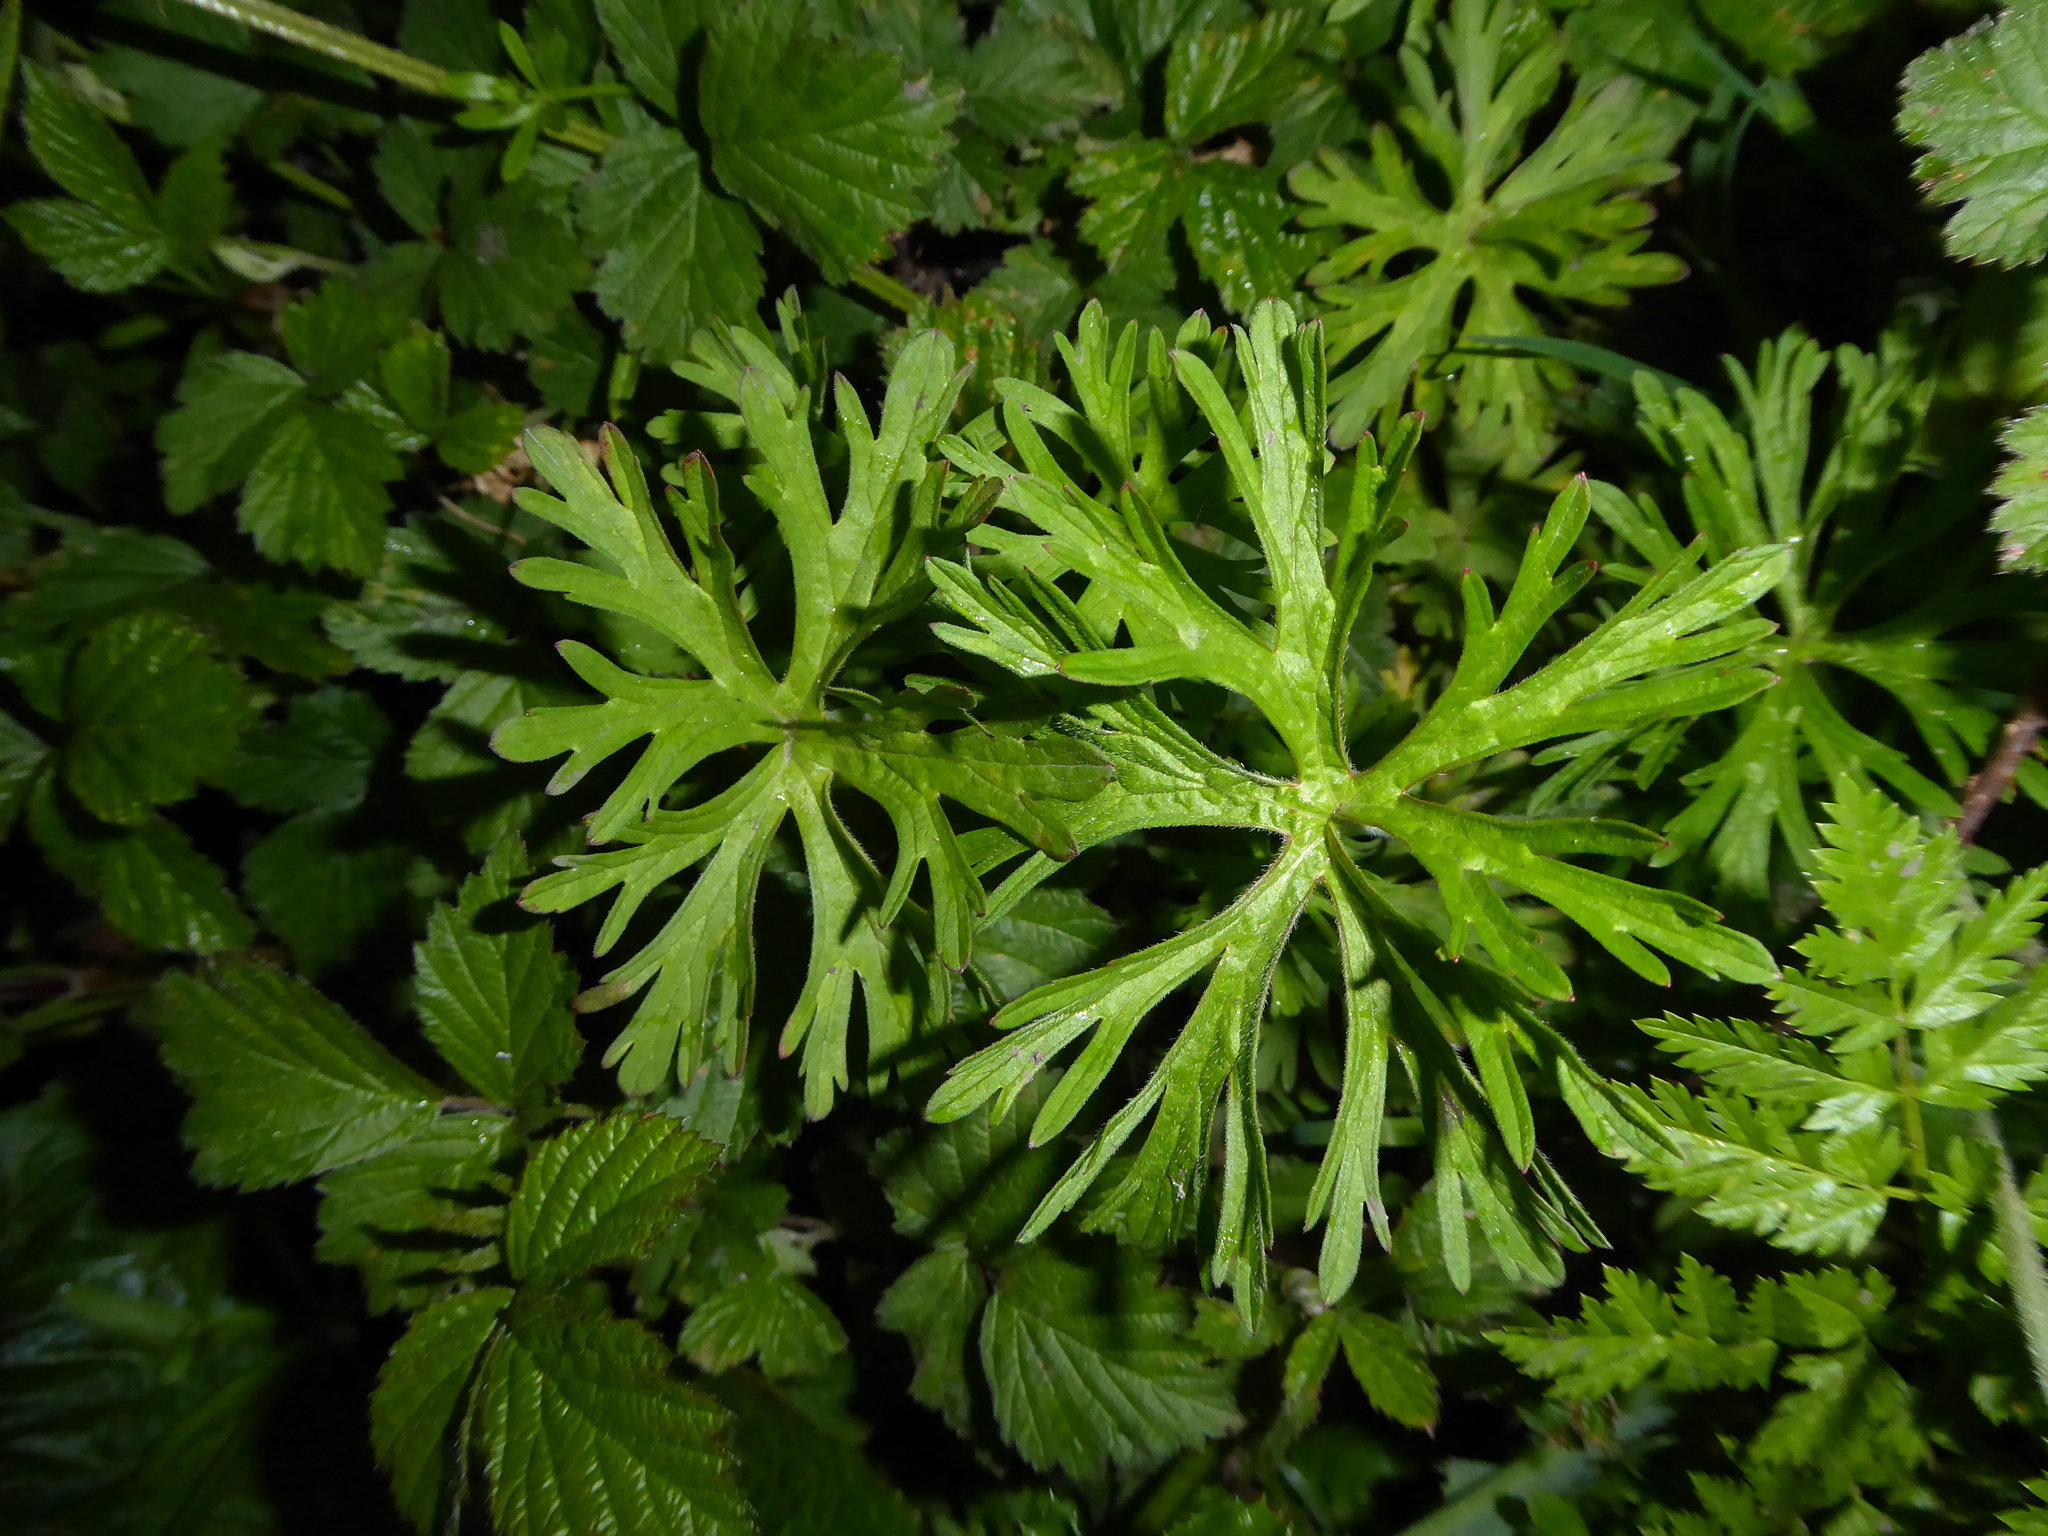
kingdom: Plantae
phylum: Tracheophyta
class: Magnoliopsida
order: Geraniales
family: Geraniaceae
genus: Geranium
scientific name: Geranium dissectum
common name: Cut-leaved crane's-bill
